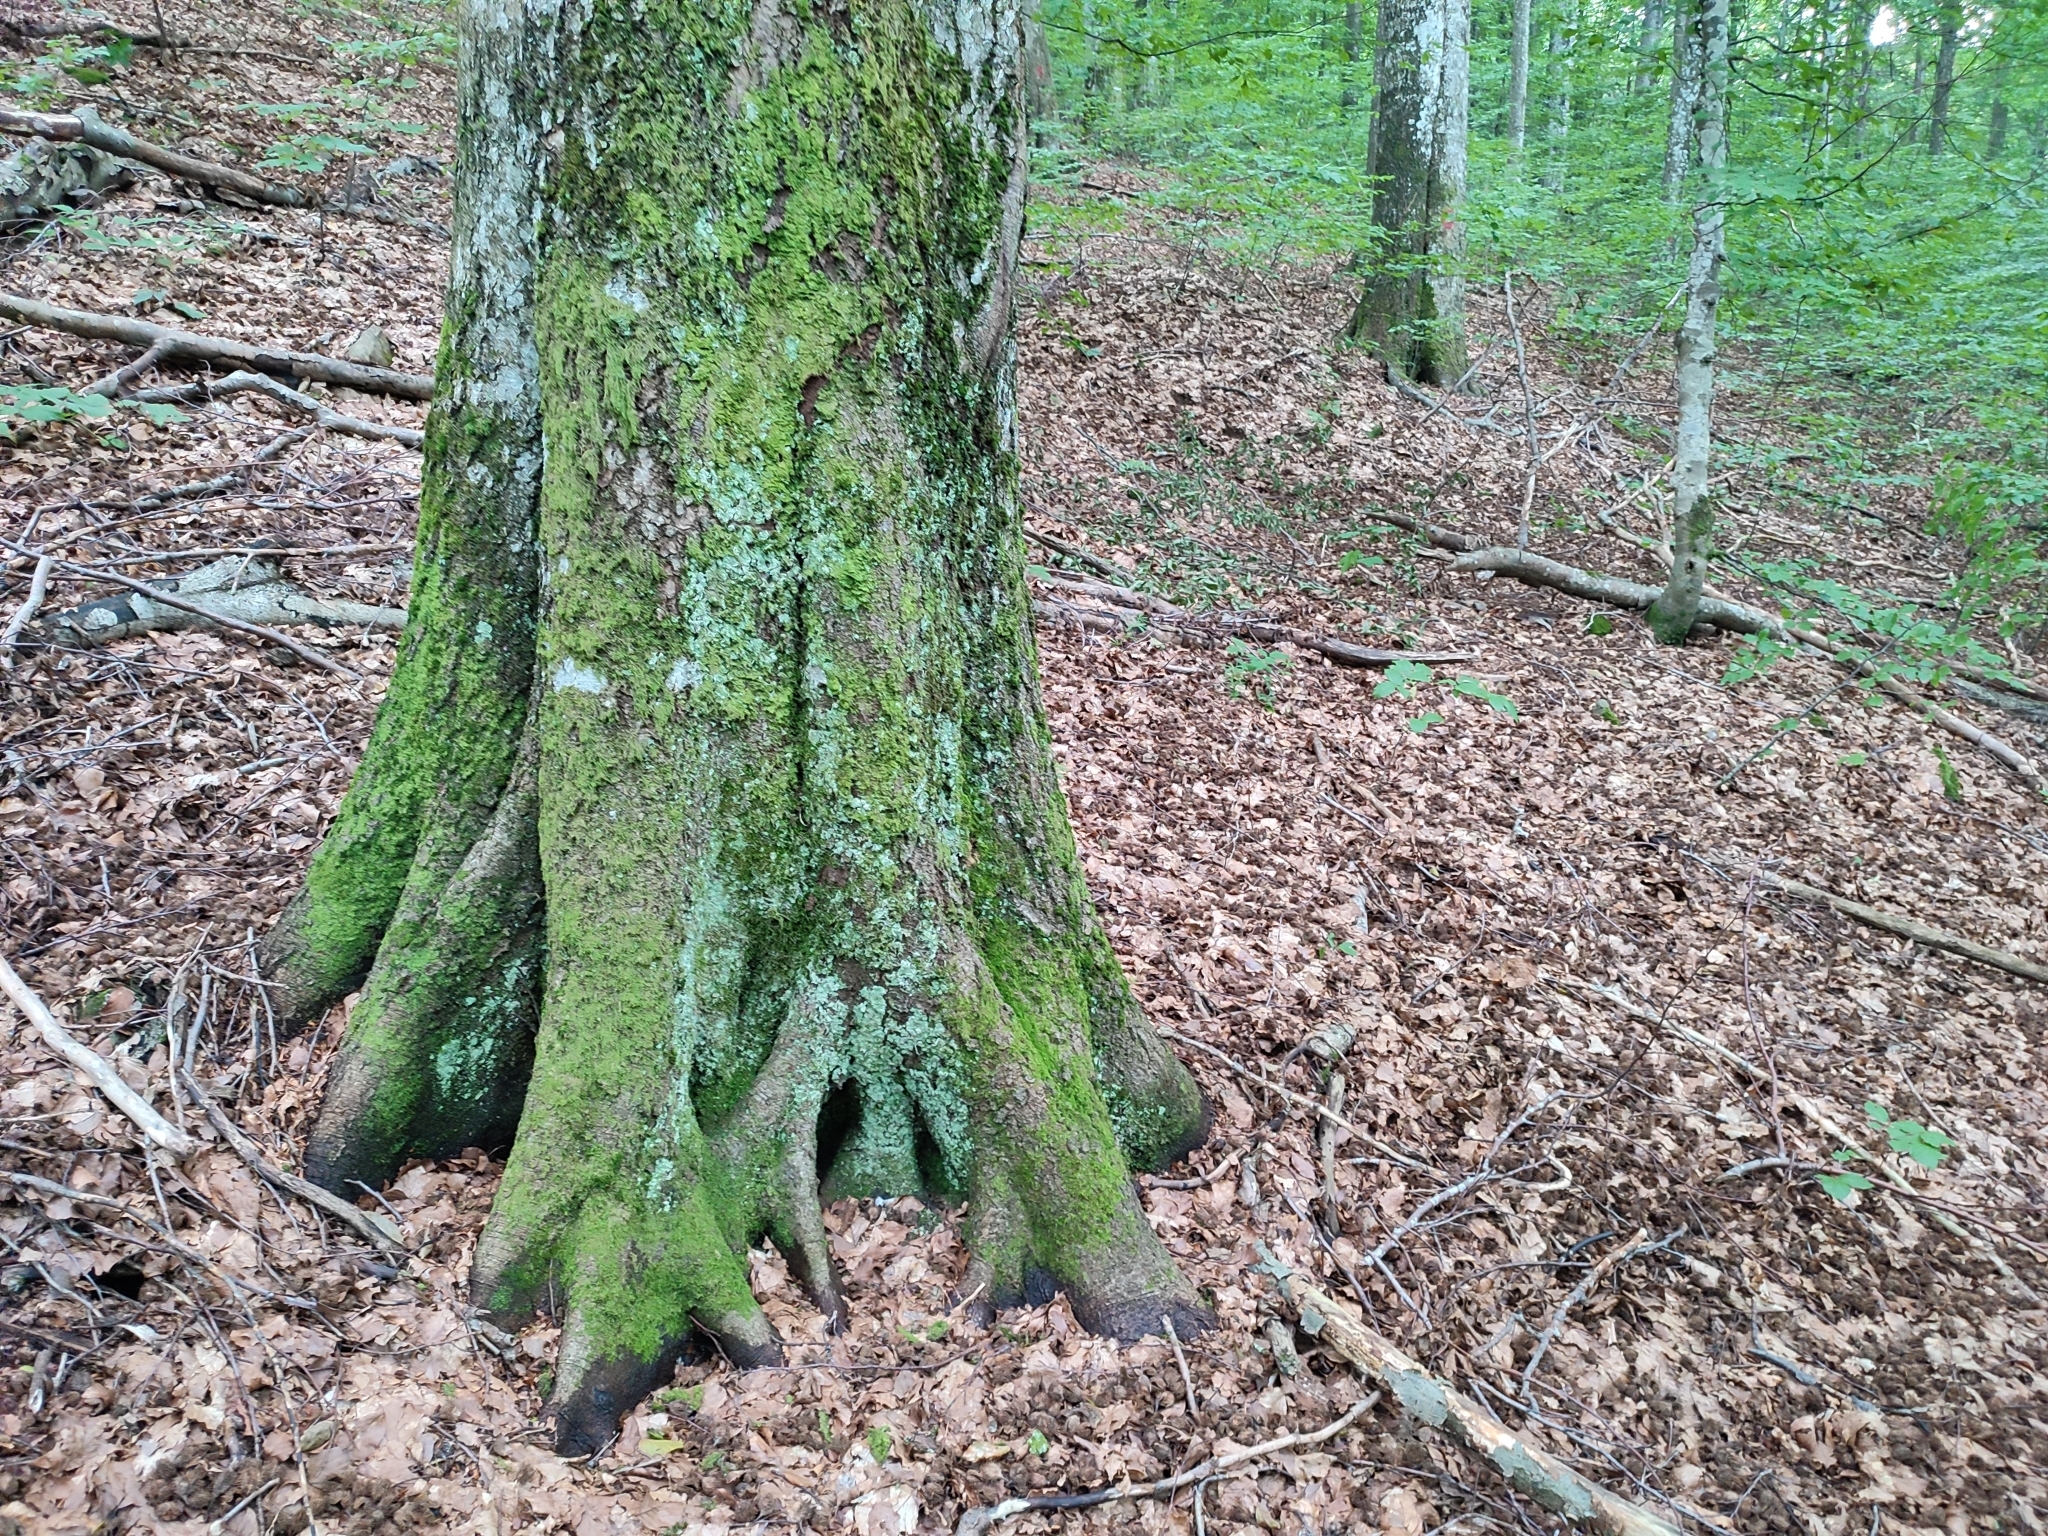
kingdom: Plantae
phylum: Tracheophyta
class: Magnoliopsida
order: Fagales
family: Fagaceae
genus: Fagus
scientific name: Fagus sylvatica
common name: Beech
